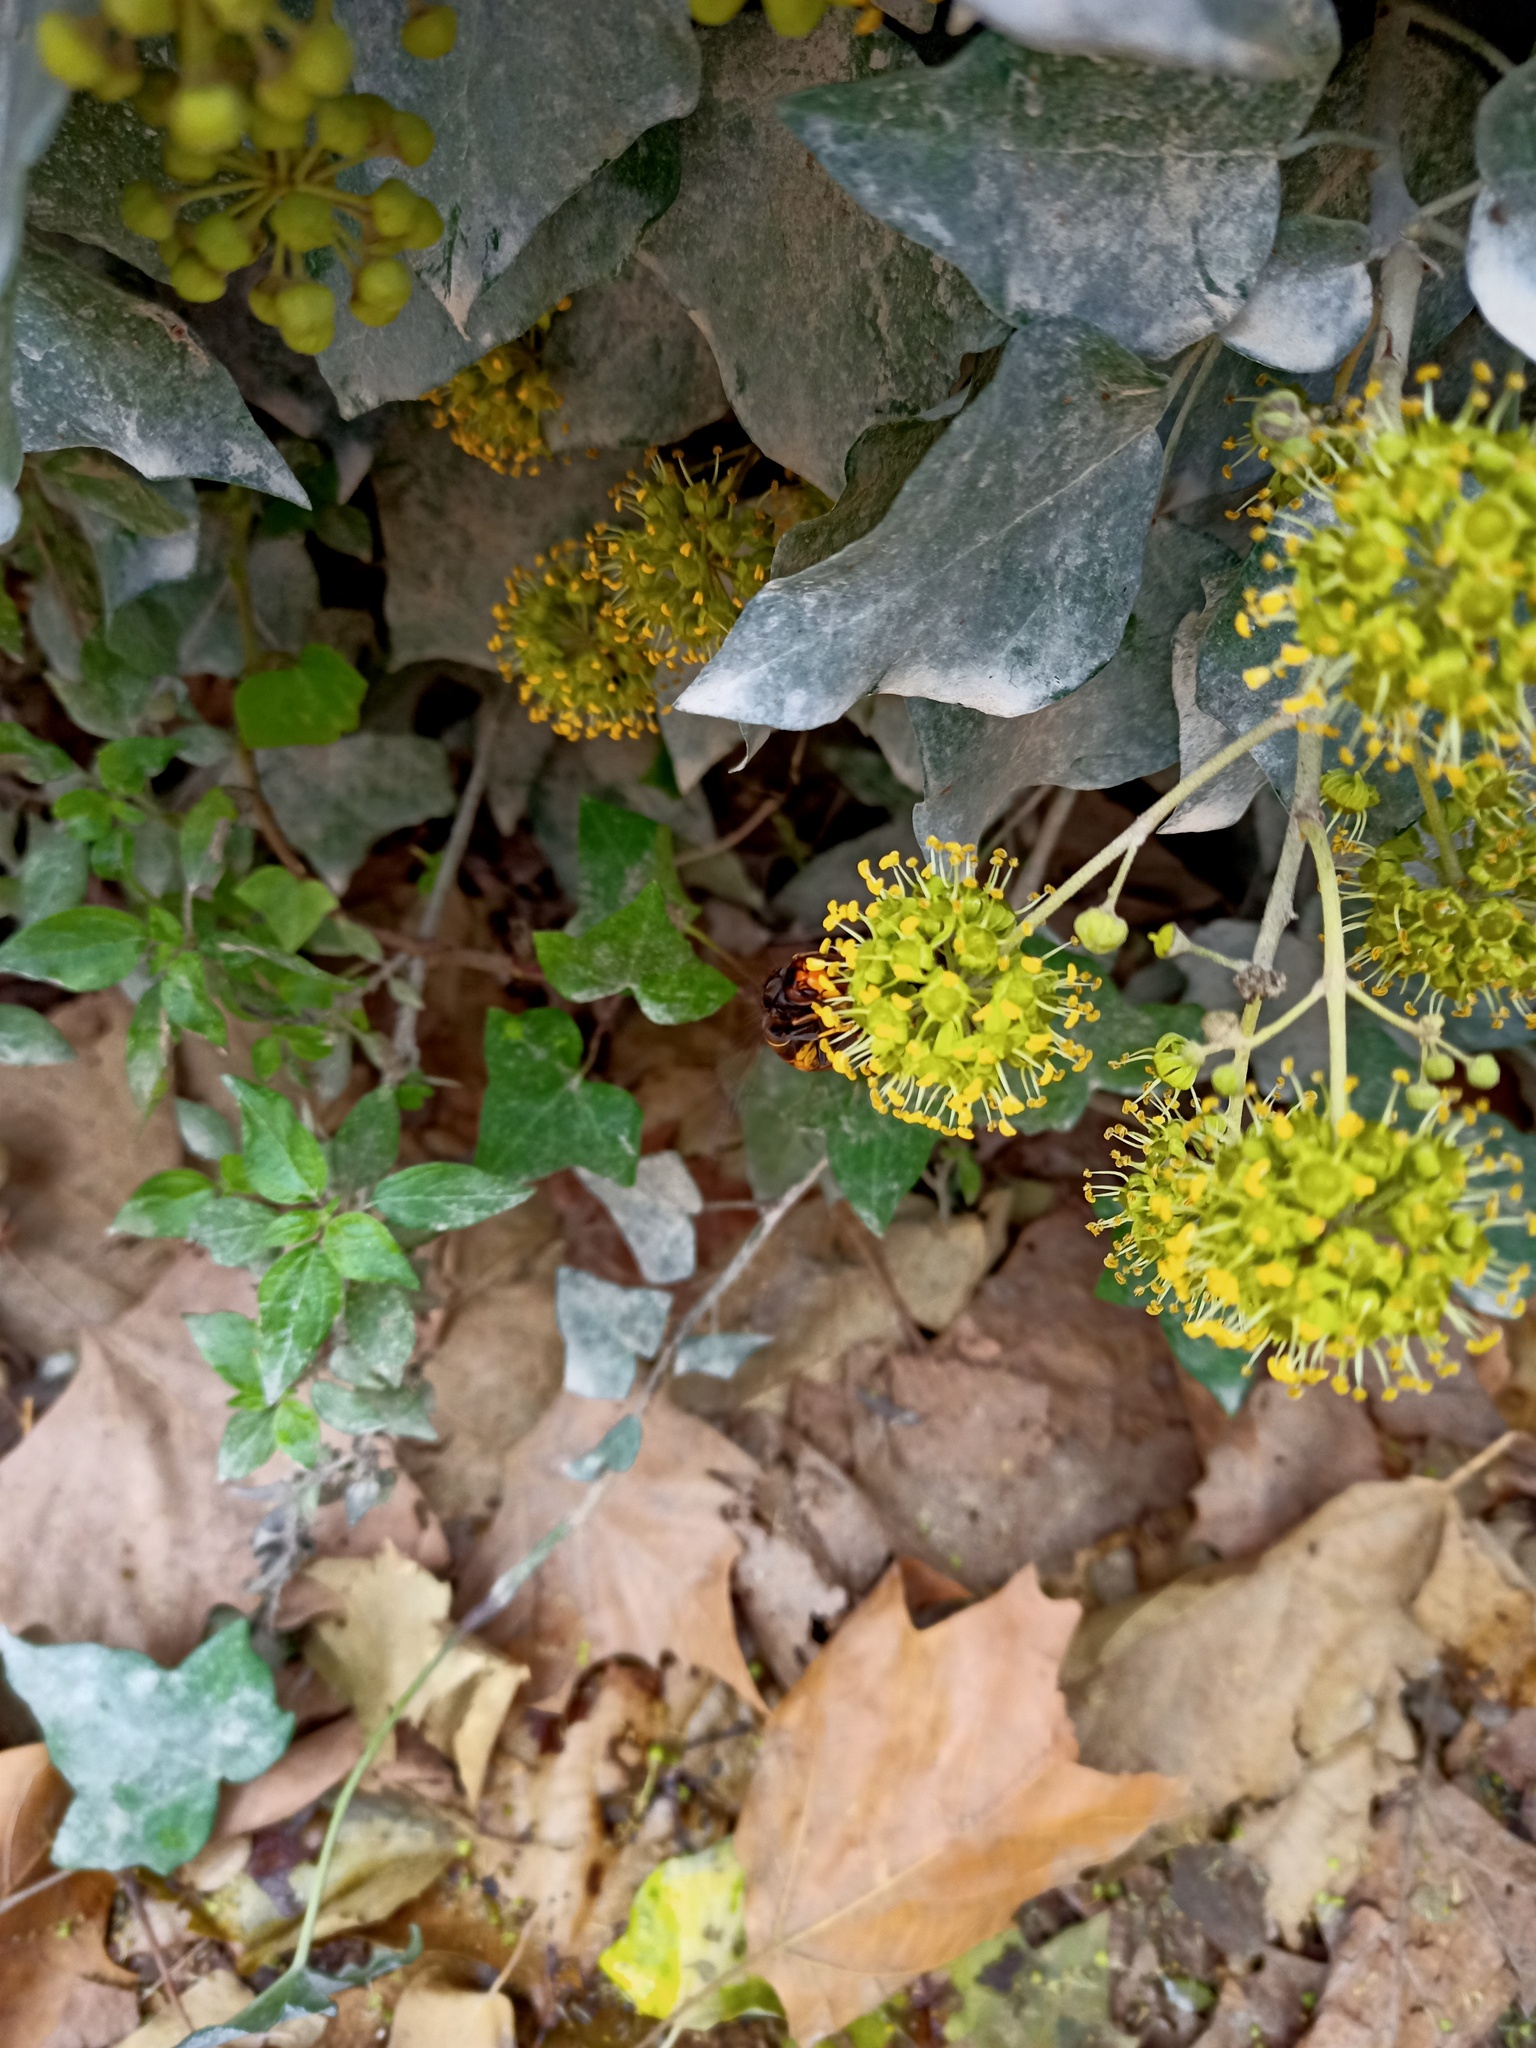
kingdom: Animalia
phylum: Arthropoda
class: Insecta
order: Hymenoptera
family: Vespidae
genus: Vespa
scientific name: Vespa velutina
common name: Asian hornet
